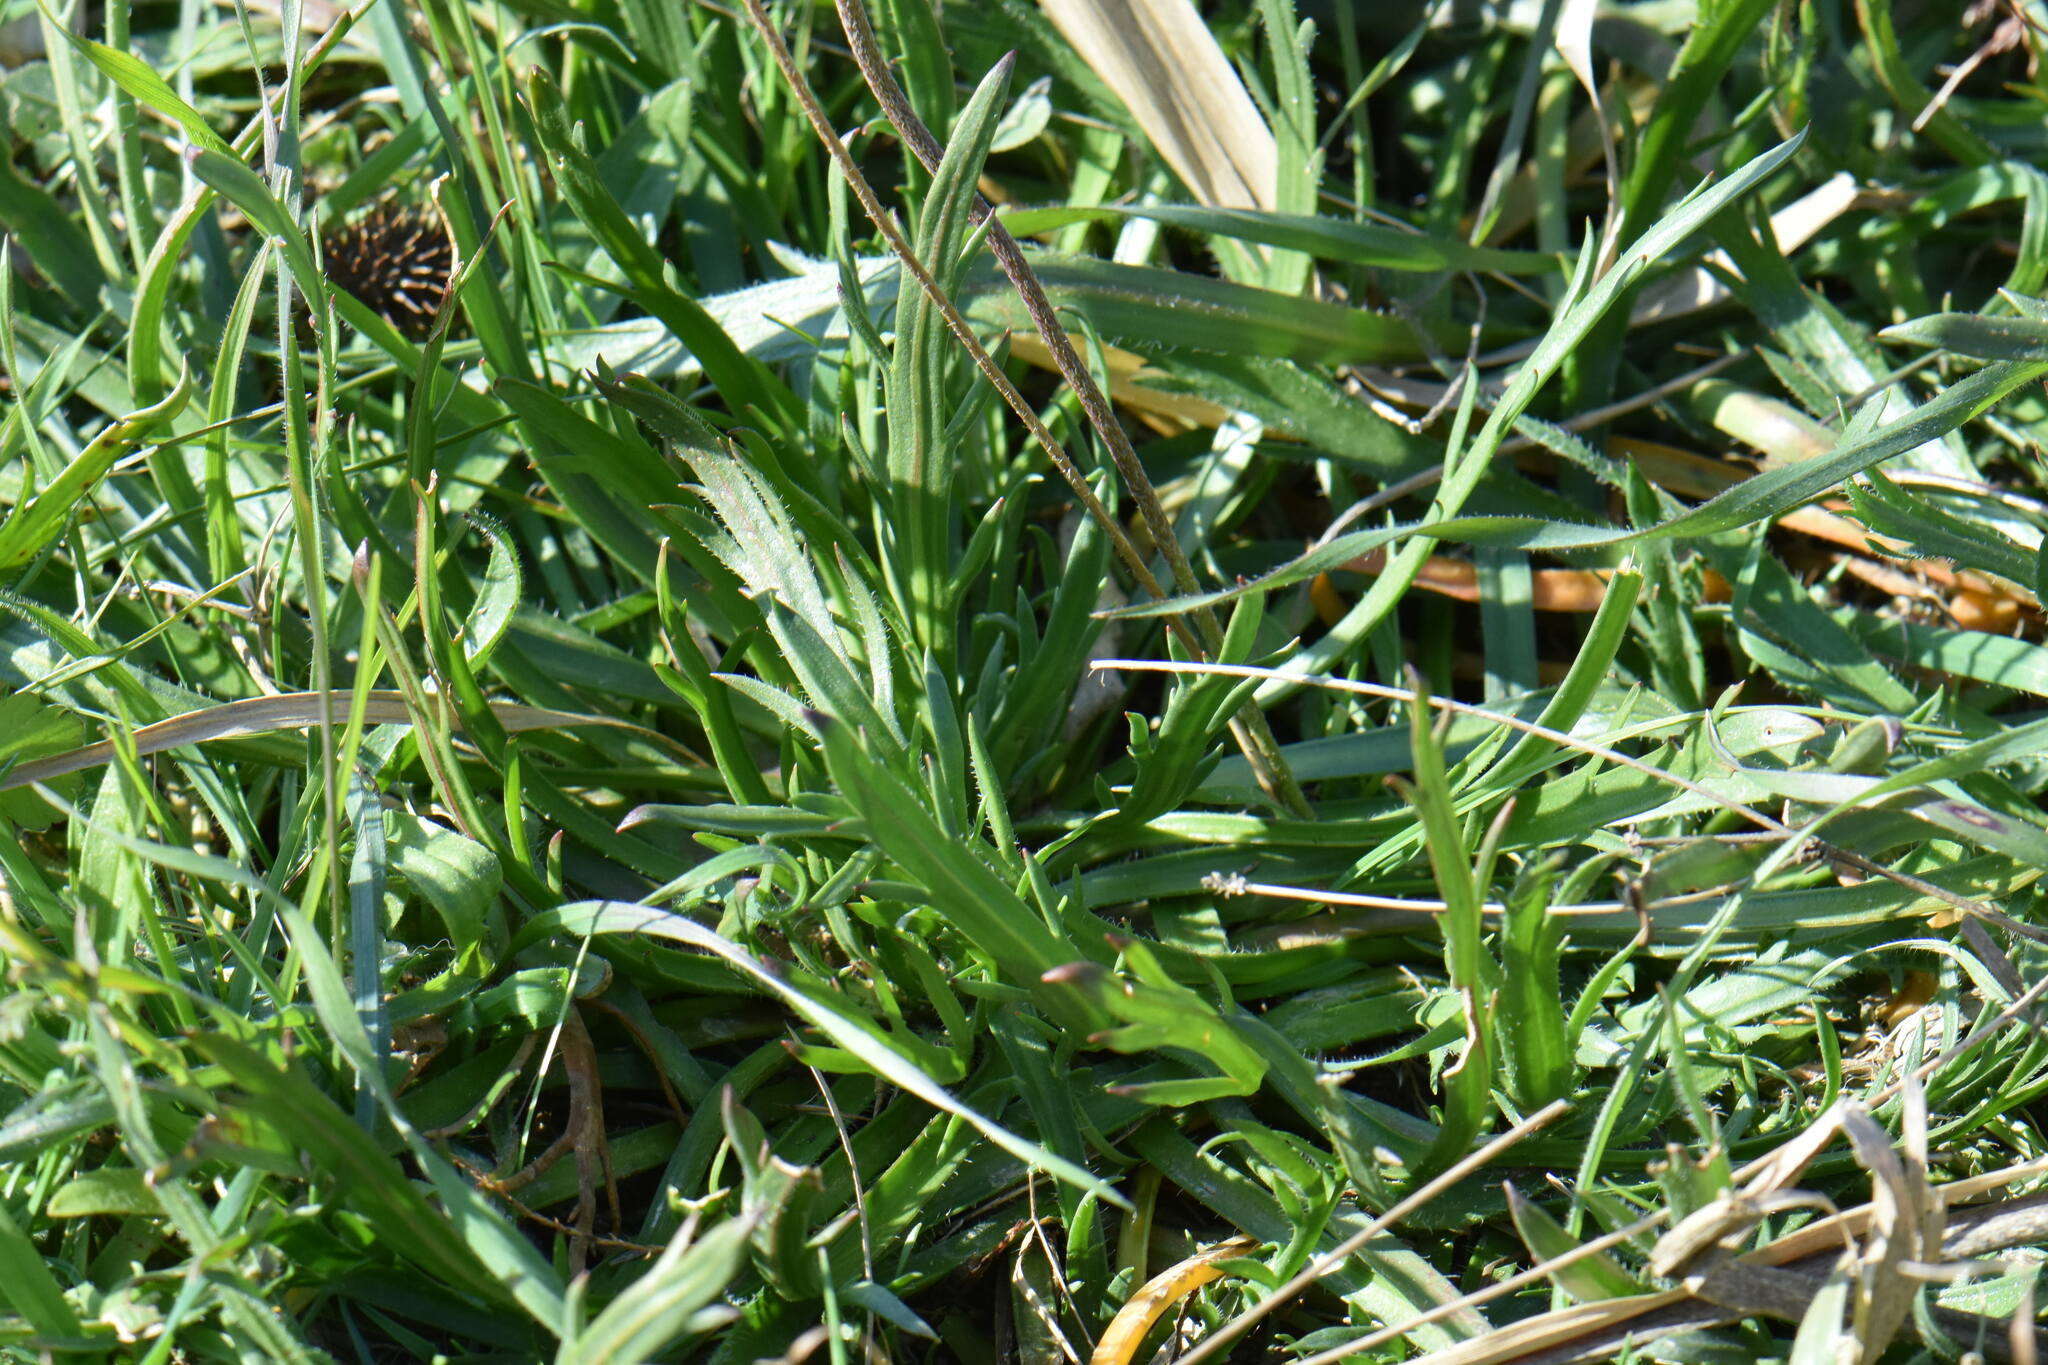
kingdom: Plantae
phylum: Tracheophyta
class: Magnoliopsida
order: Lamiales
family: Plantaginaceae
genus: Plantago
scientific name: Plantago coronopus
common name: Buck's-horn plantain
